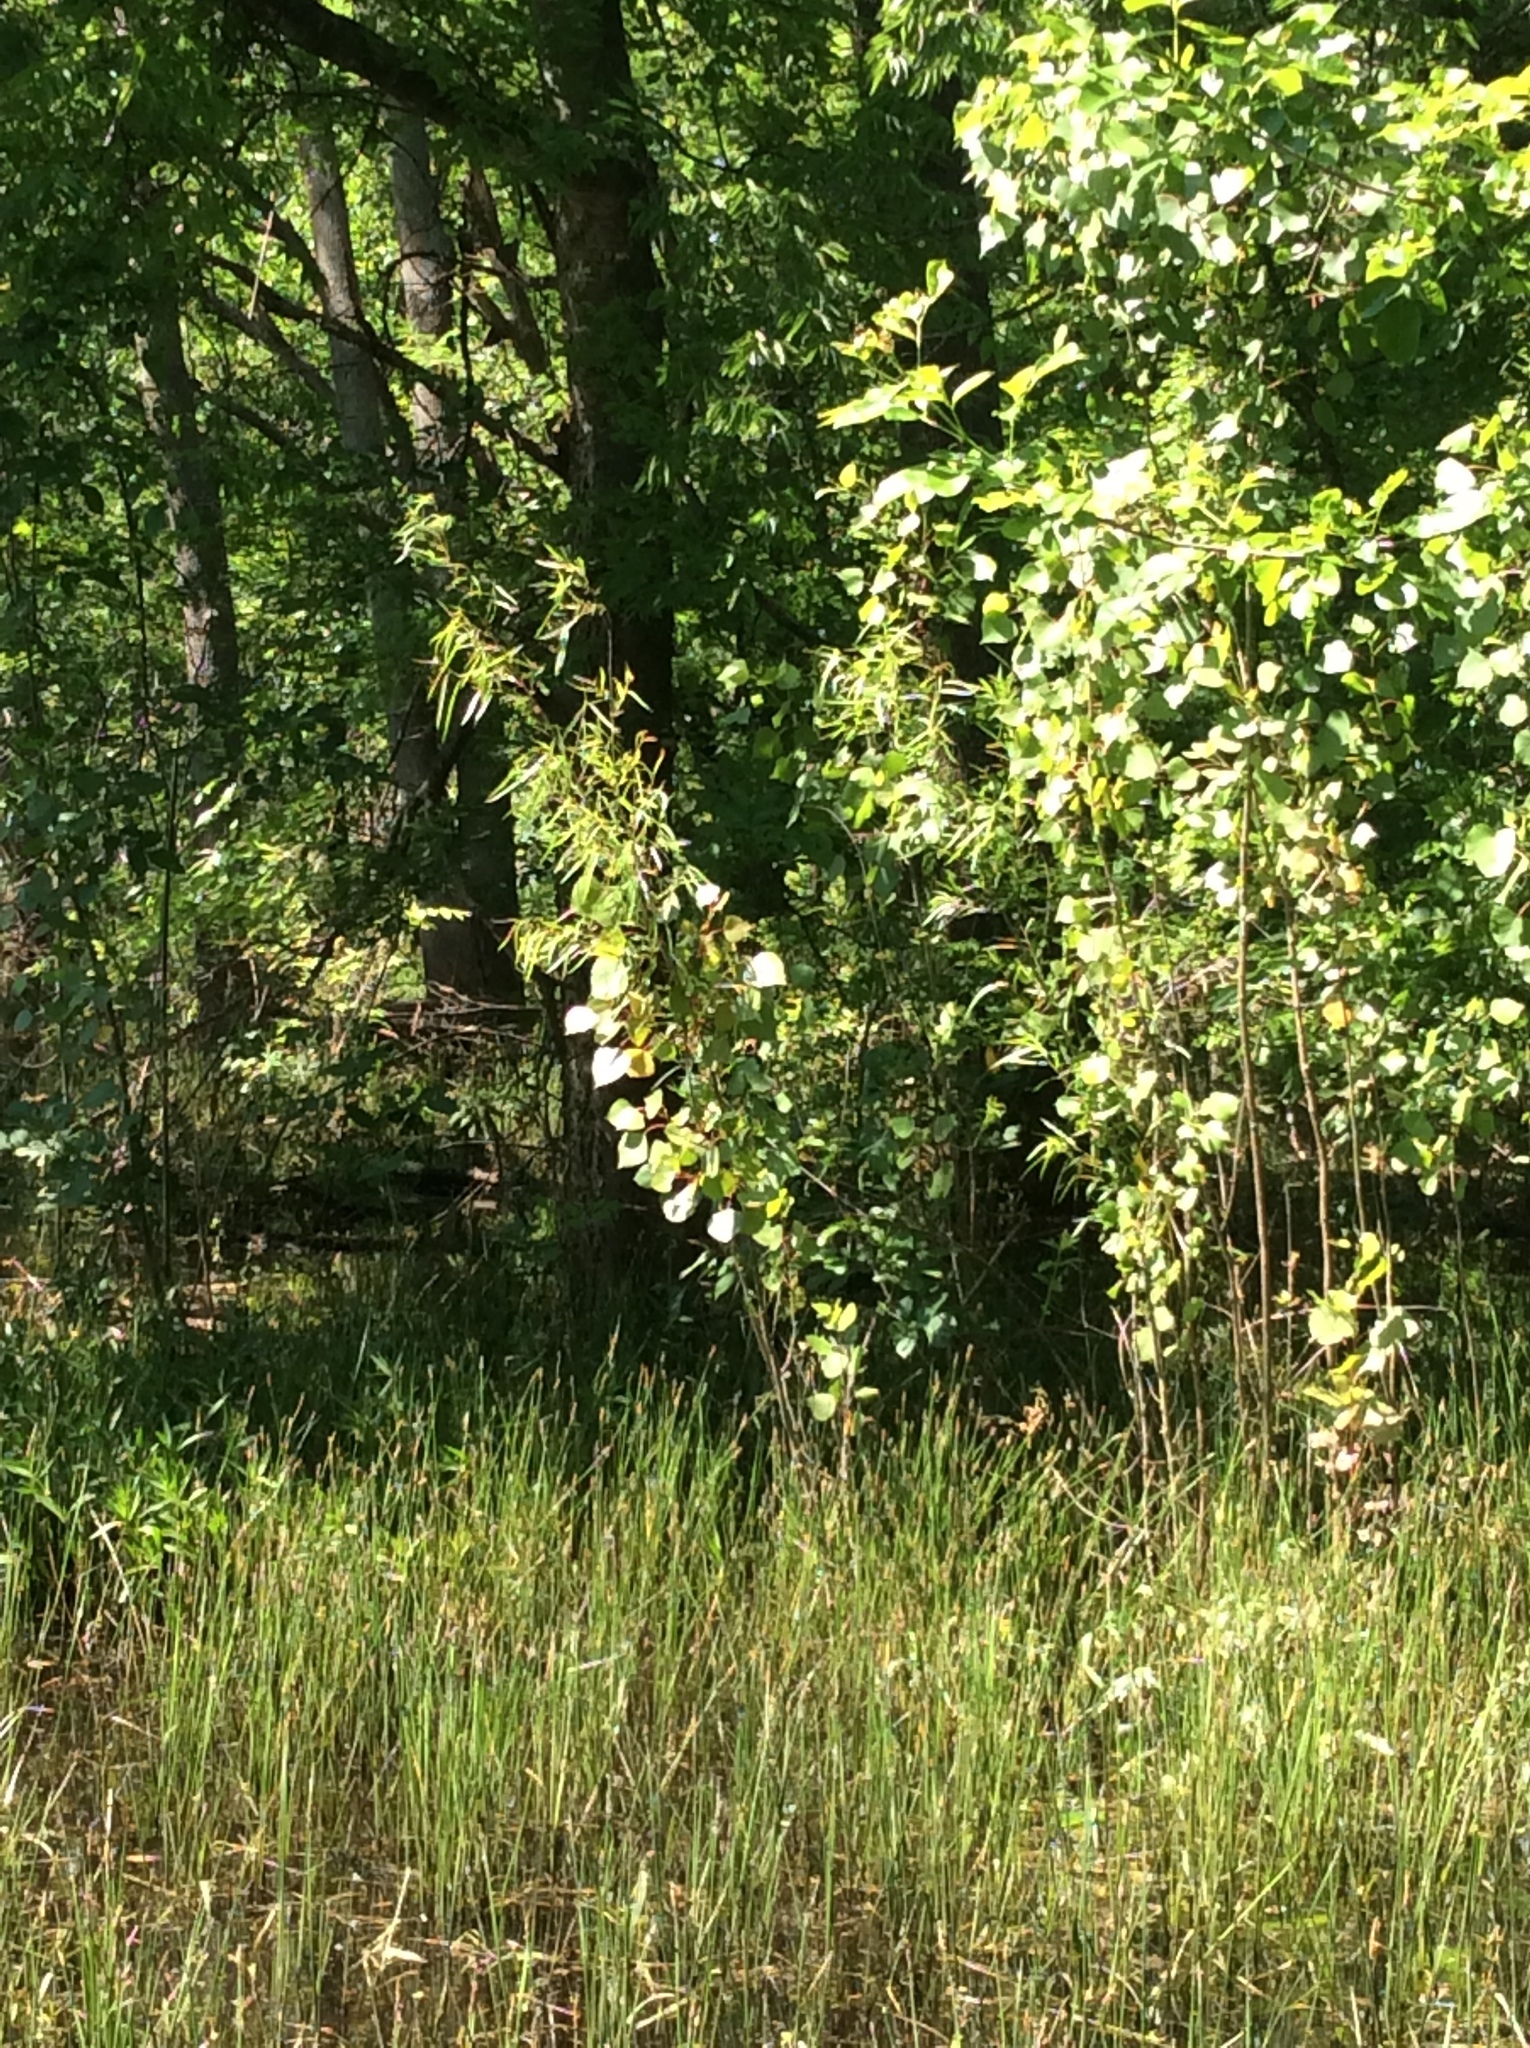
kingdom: Plantae
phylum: Tracheophyta
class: Magnoliopsida
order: Malpighiales
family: Salicaceae
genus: Populus
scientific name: Populus deltoides
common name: Eastern cottonwood
